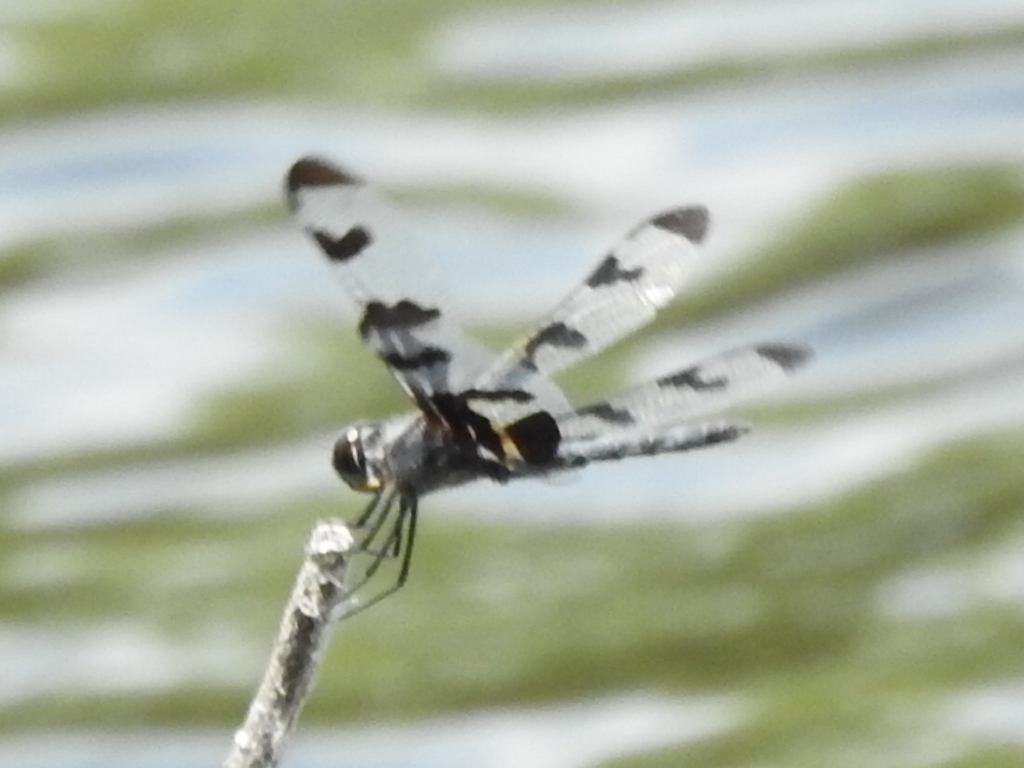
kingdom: Animalia
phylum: Arthropoda
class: Insecta
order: Odonata
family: Libellulidae
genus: Celithemis
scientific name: Celithemis fasciata
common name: Banded pennant
